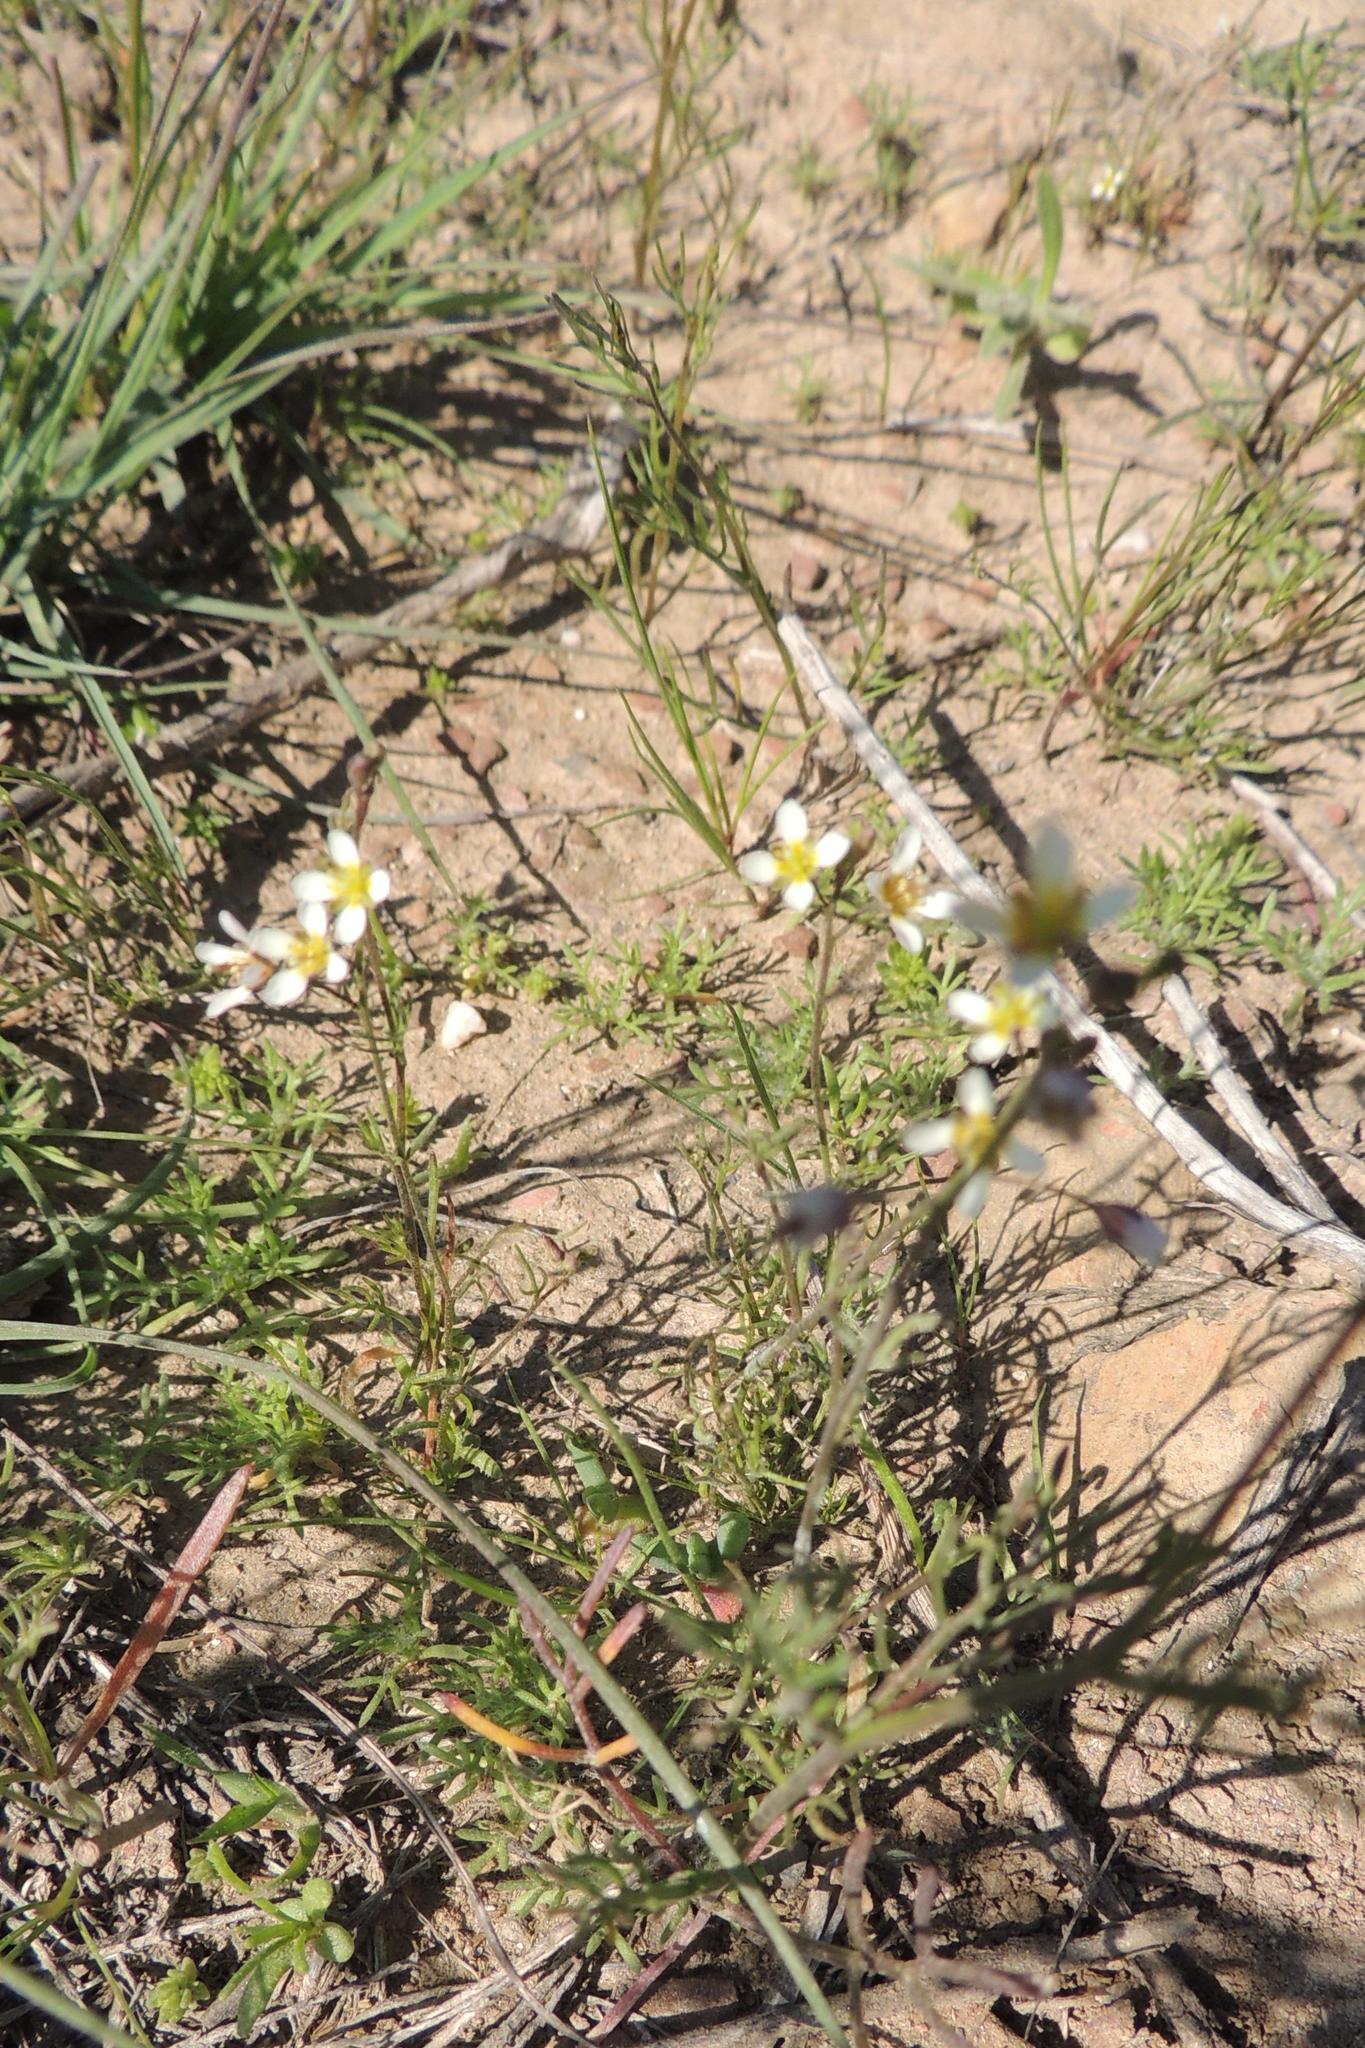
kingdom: Plantae
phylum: Tracheophyta
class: Magnoliopsida
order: Brassicales
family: Brassicaceae
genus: Heliophila
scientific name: Heliophila pendula
